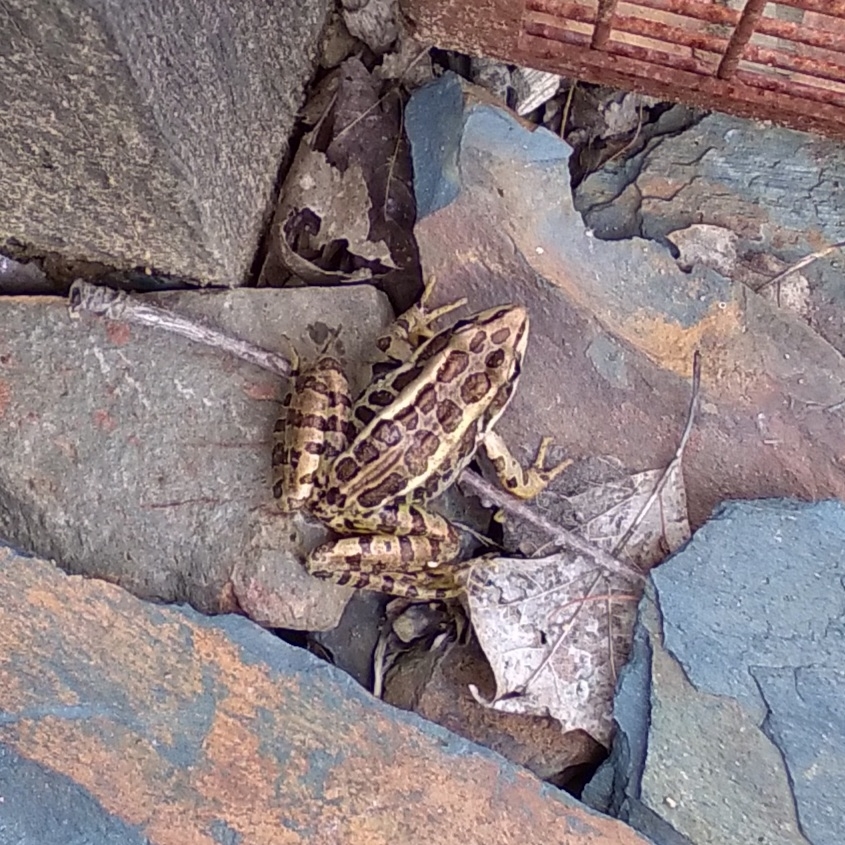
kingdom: Animalia
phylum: Chordata
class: Amphibia
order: Anura
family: Ranidae
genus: Lithobates
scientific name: Lithobates palustris
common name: Pickerel frog
